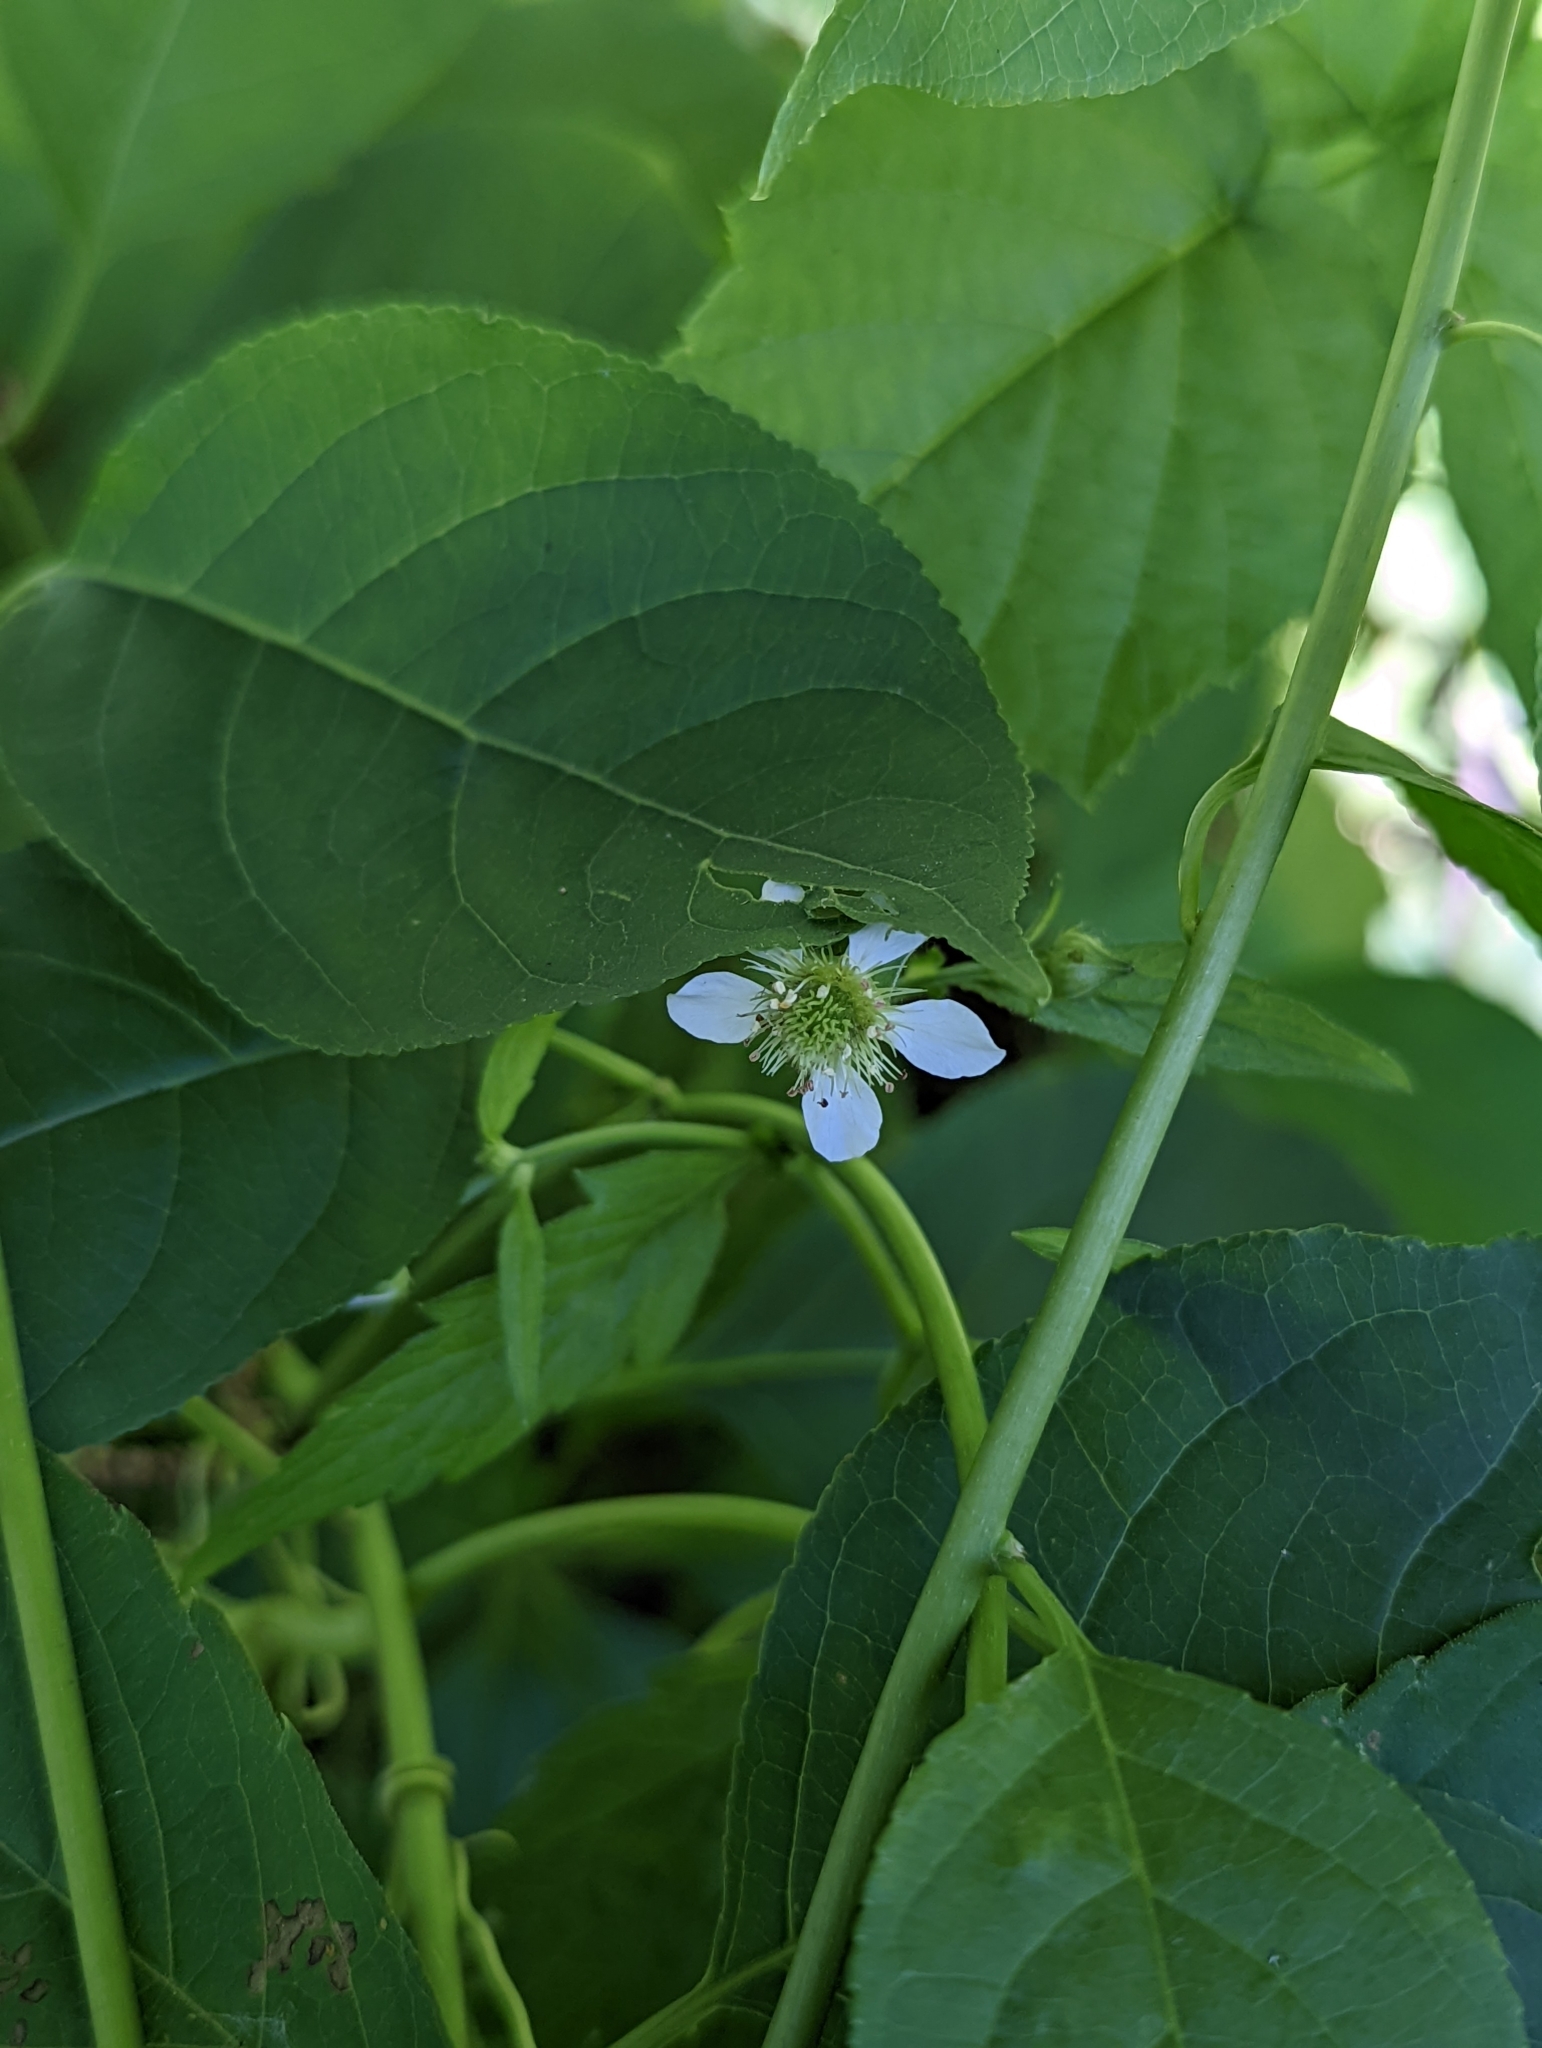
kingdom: Plantae
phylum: Tracheophyta
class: Magnoliopsida
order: Rosales
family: Rosaceae
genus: Geum
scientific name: Geum canadense
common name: White avens
